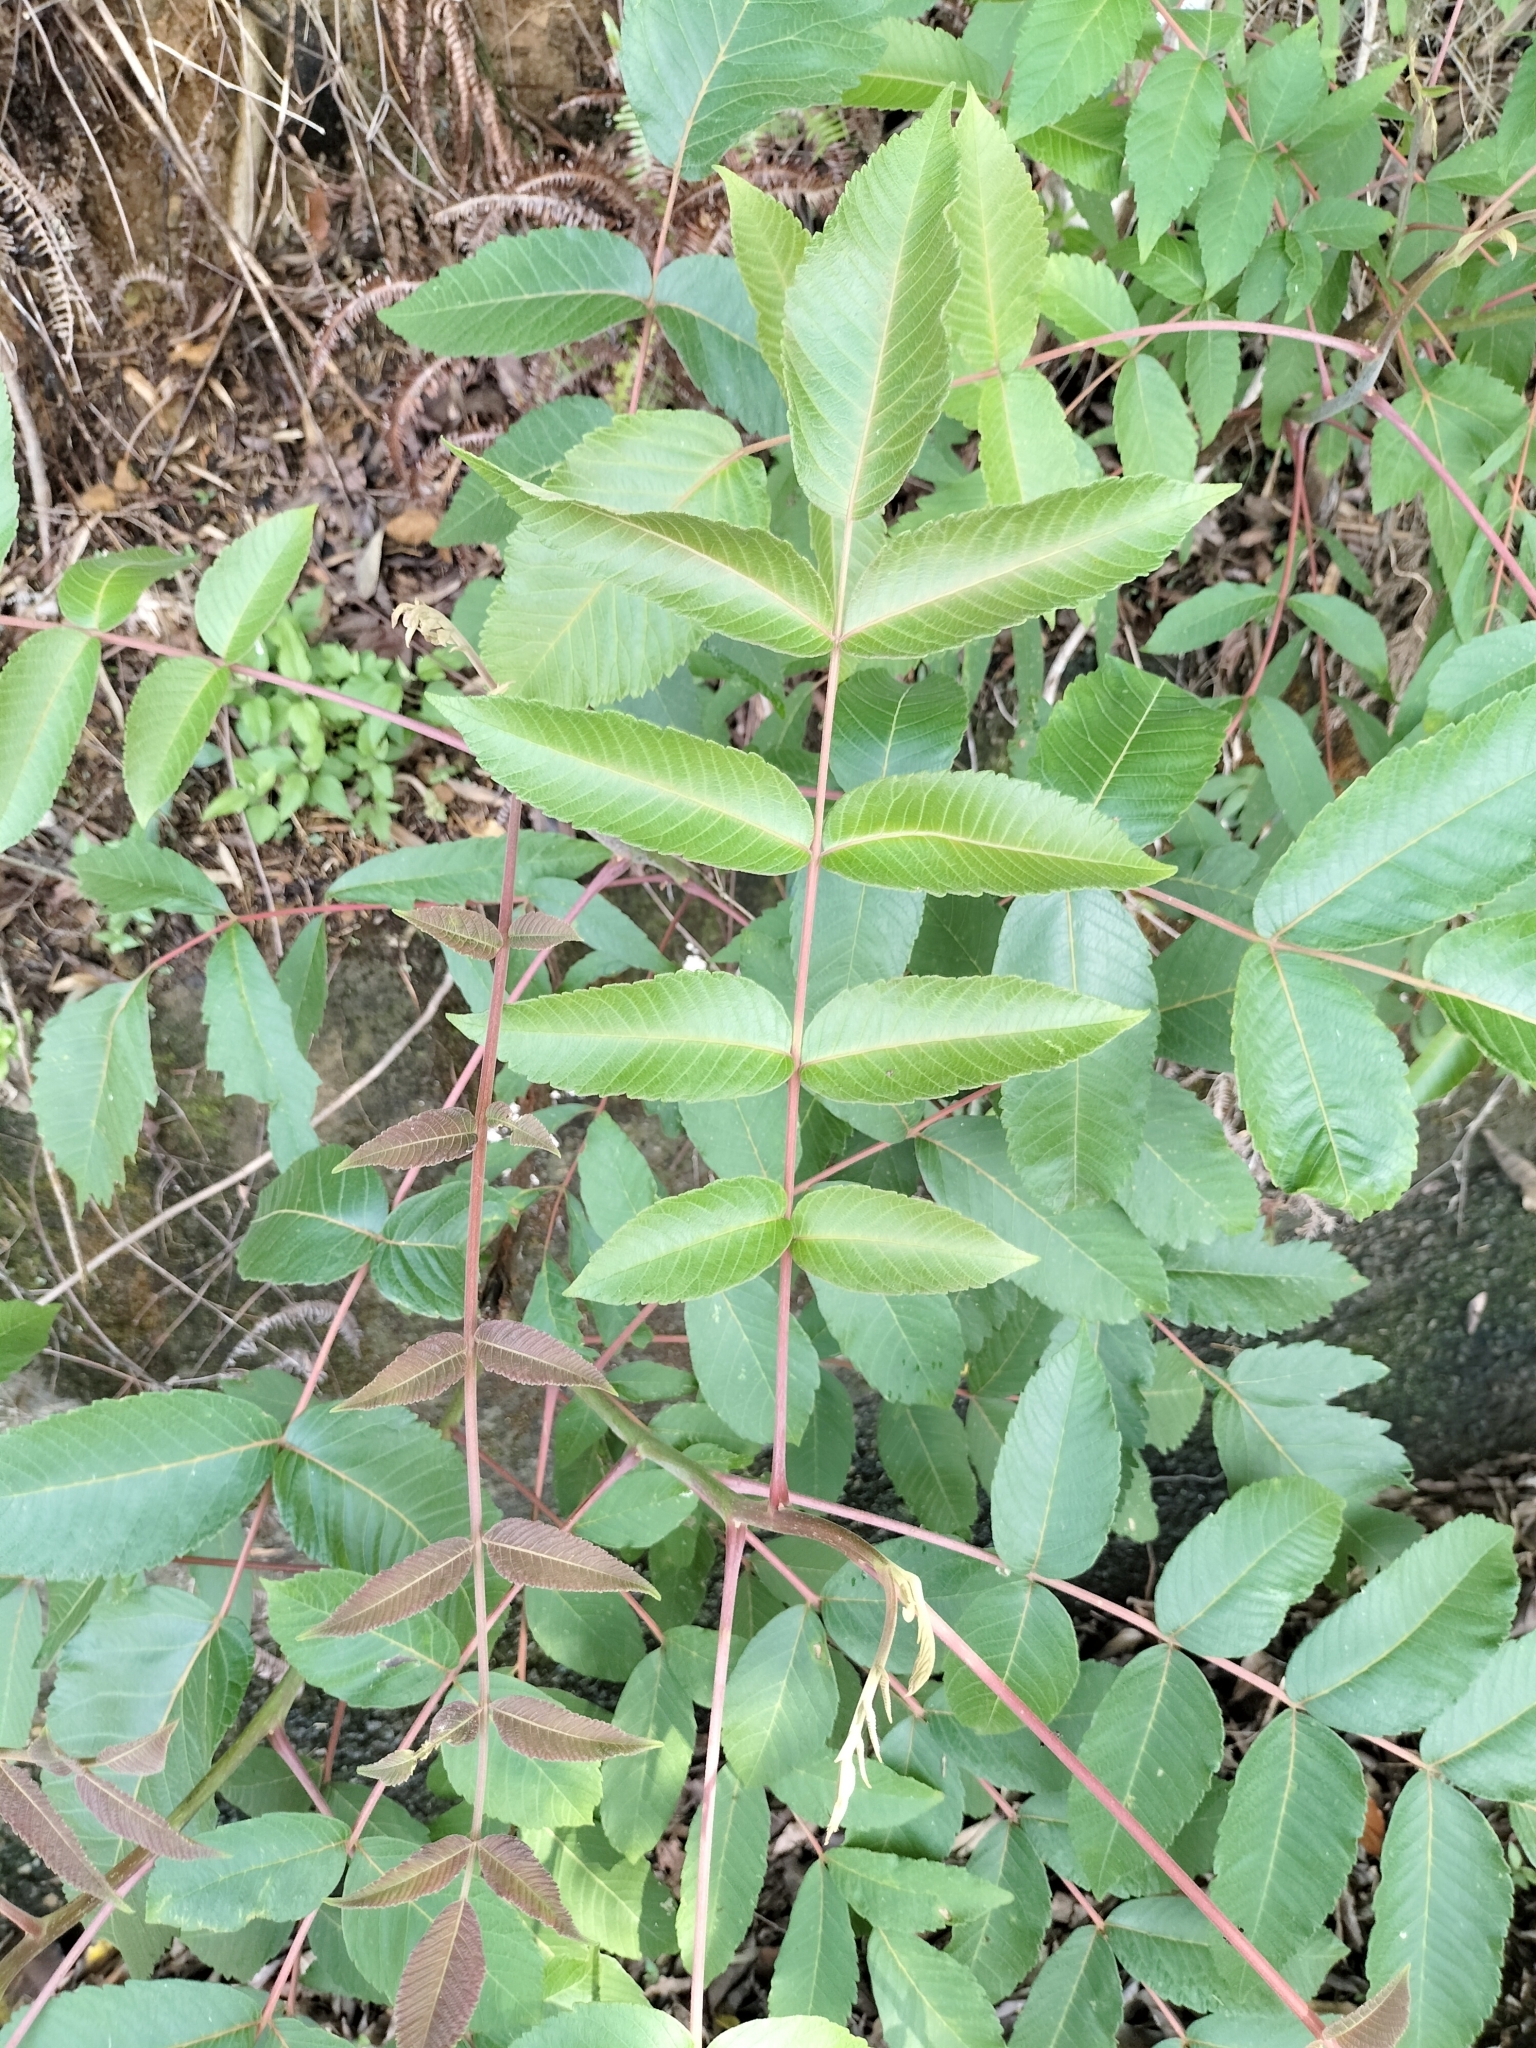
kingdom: Plantae
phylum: Tracheophyta
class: Magnoliopsida
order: Sapindales
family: Anacardiaceae
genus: Rhus
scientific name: Rhus chinensis
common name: Chinese gall
